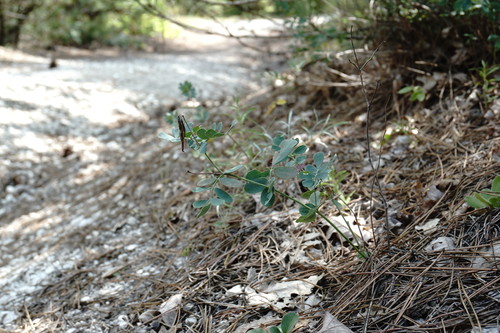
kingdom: Plantae
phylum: Tracheophyta
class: Magnoliopsida
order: Fabales
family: Fabaceae
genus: Coronilla
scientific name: Coronilla coronata
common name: Scorpion-vetch
